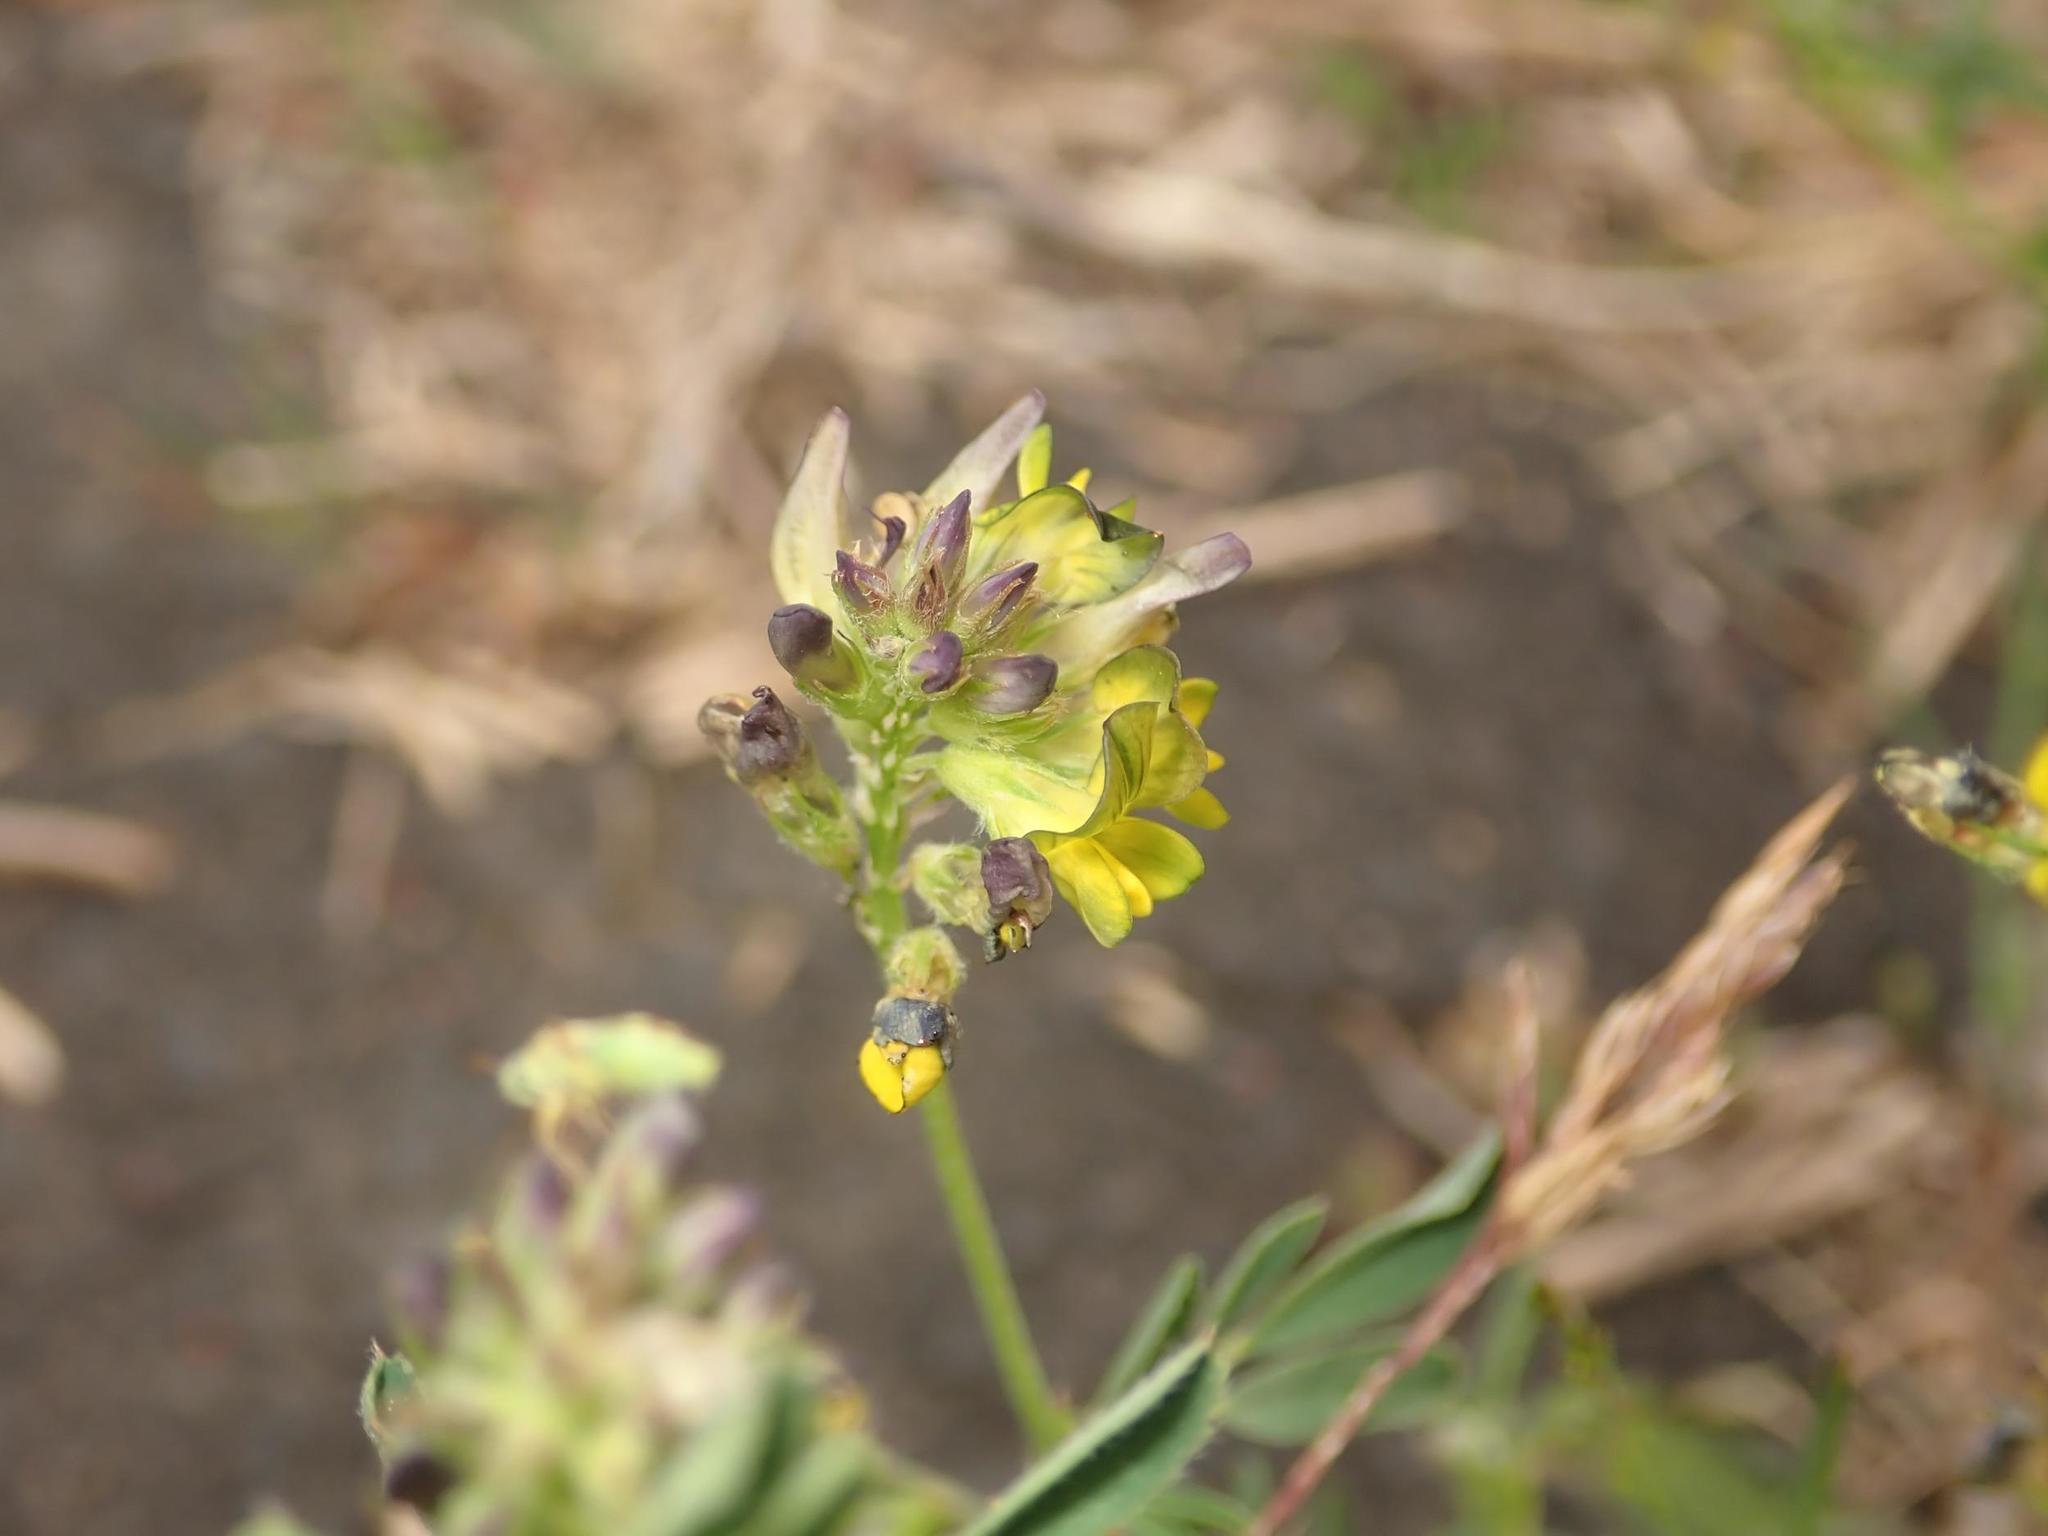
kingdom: Plantae
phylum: Tracheophyta
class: Magnoliopsida
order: Fabales
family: Fabaceae
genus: Medicago
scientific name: Medicago varia
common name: Sand lucerne
